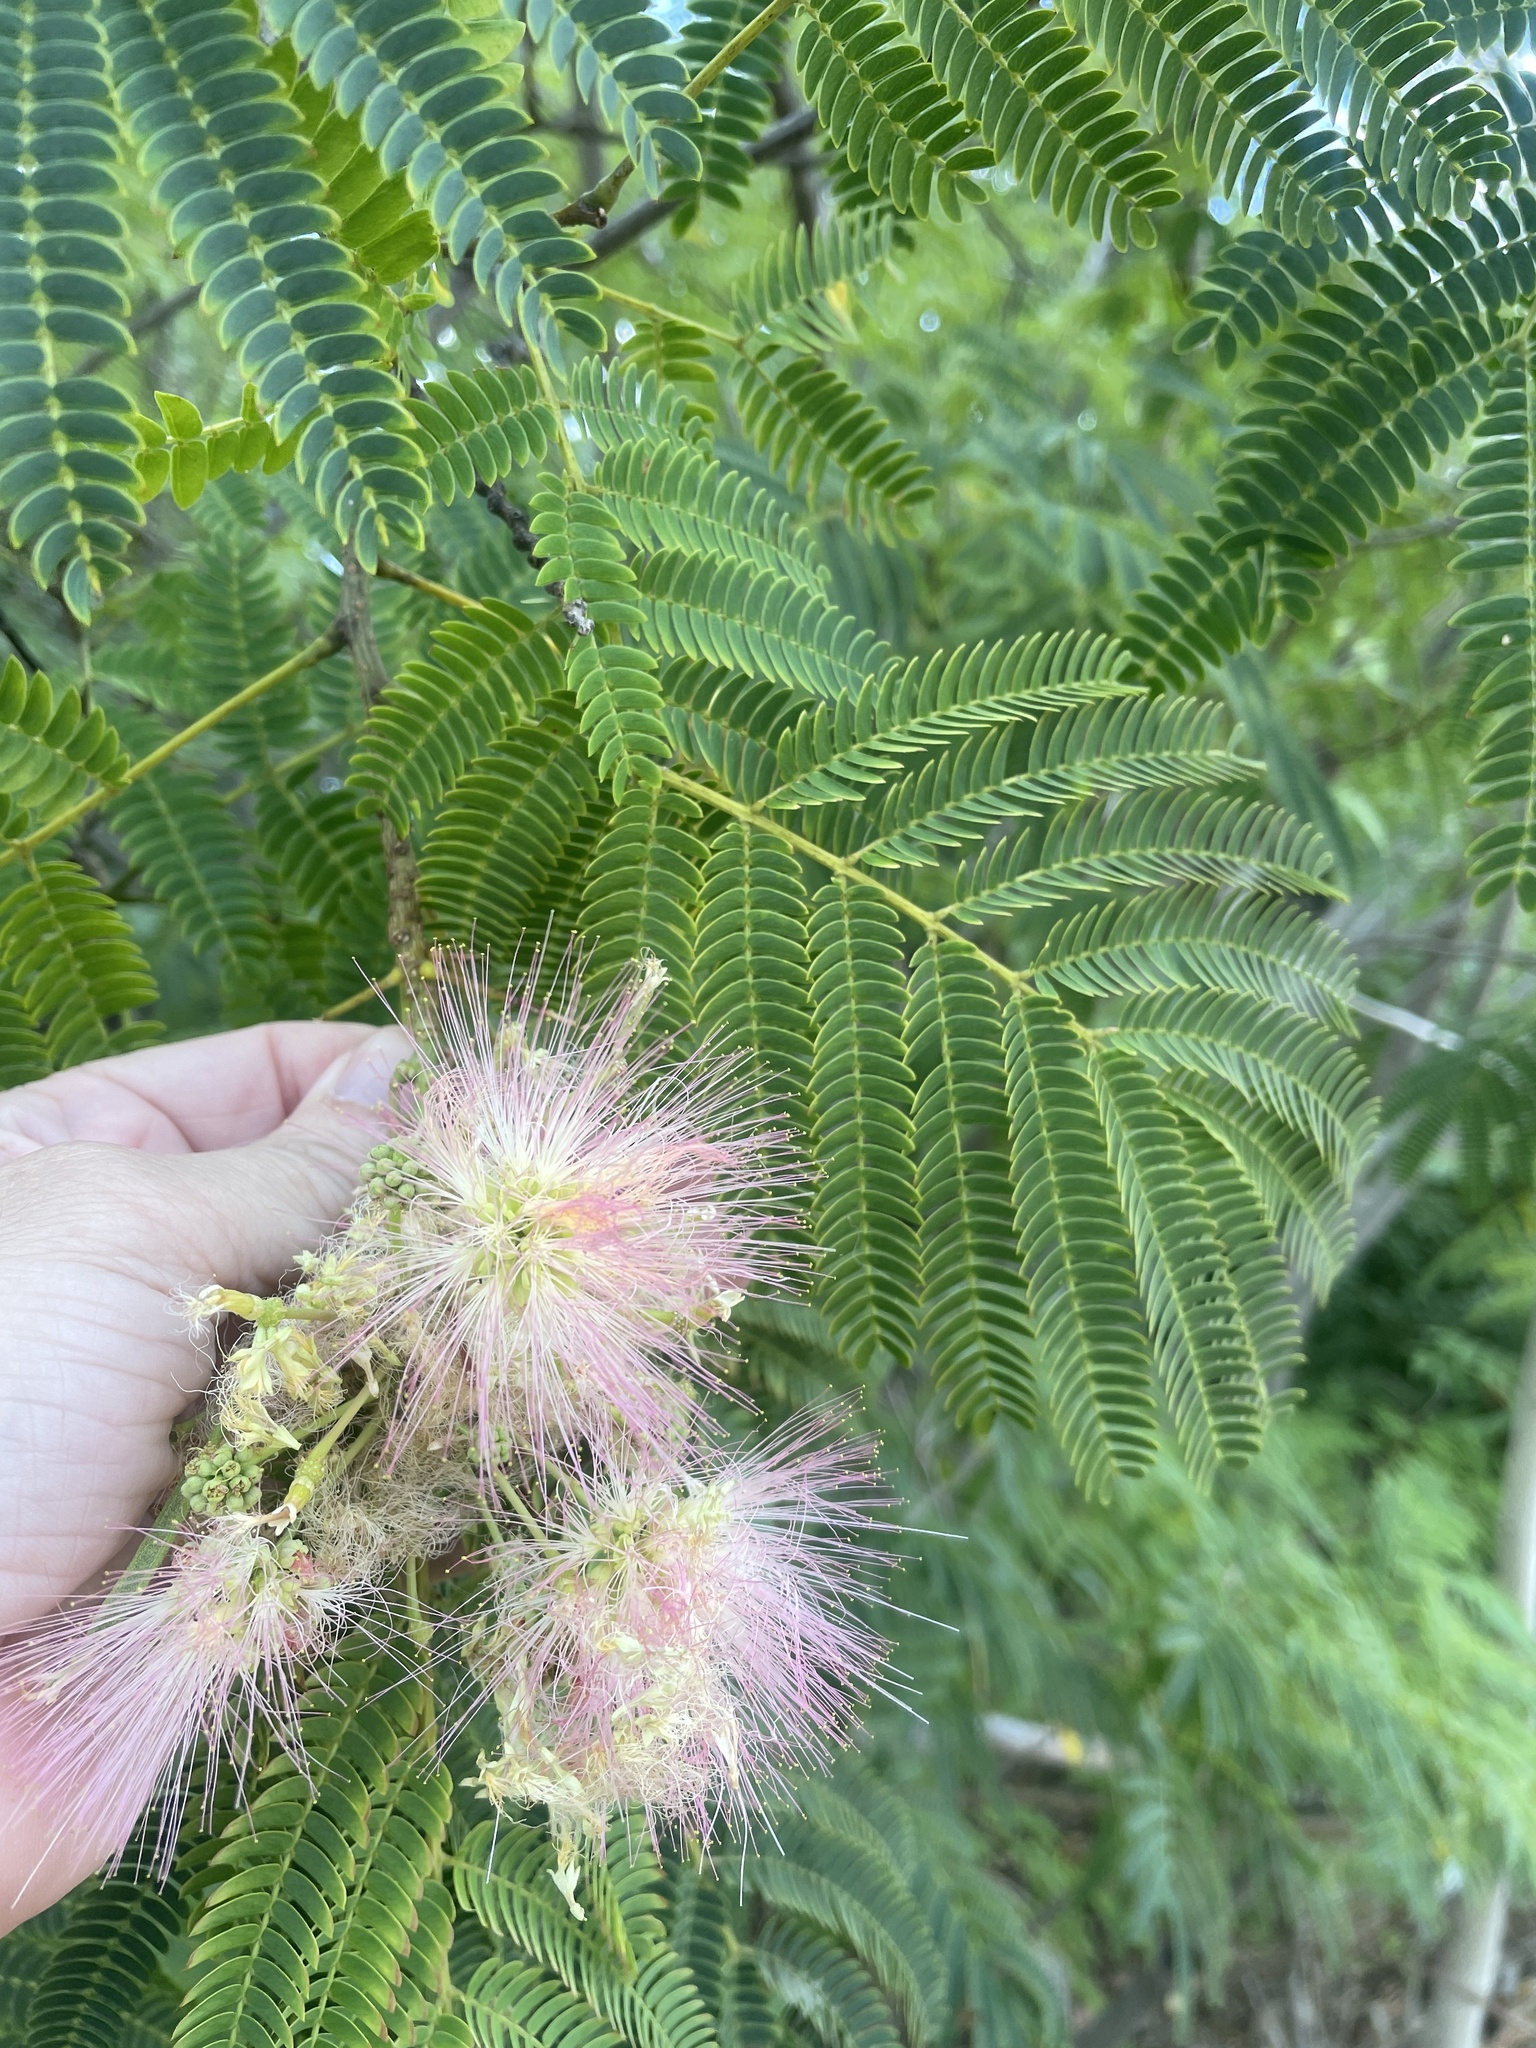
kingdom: Plantae
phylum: Tracheophyta
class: Magnoliopsida
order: Fabales
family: Fabaceae
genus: Albizia
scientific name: Albizia julibrissin
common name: Silktree
